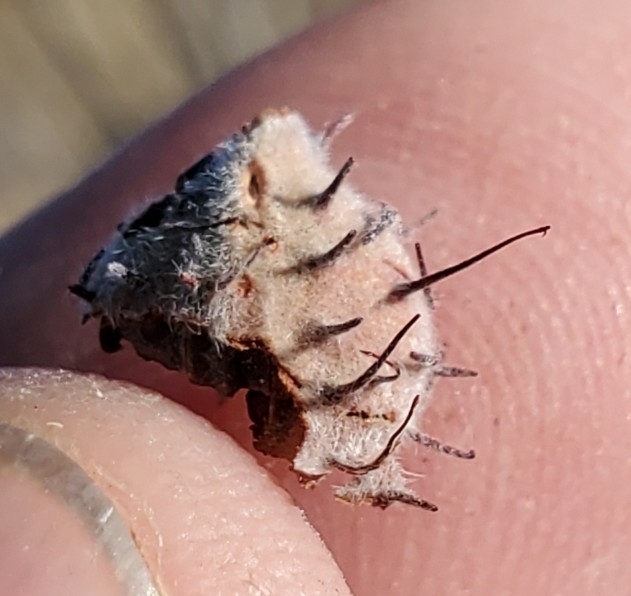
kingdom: Plantae
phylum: Tracheophyta
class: Magnoliopsida
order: Zygophyllales
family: Krameriaceae
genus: Krameria
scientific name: Krameria bicolor
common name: White ratany
